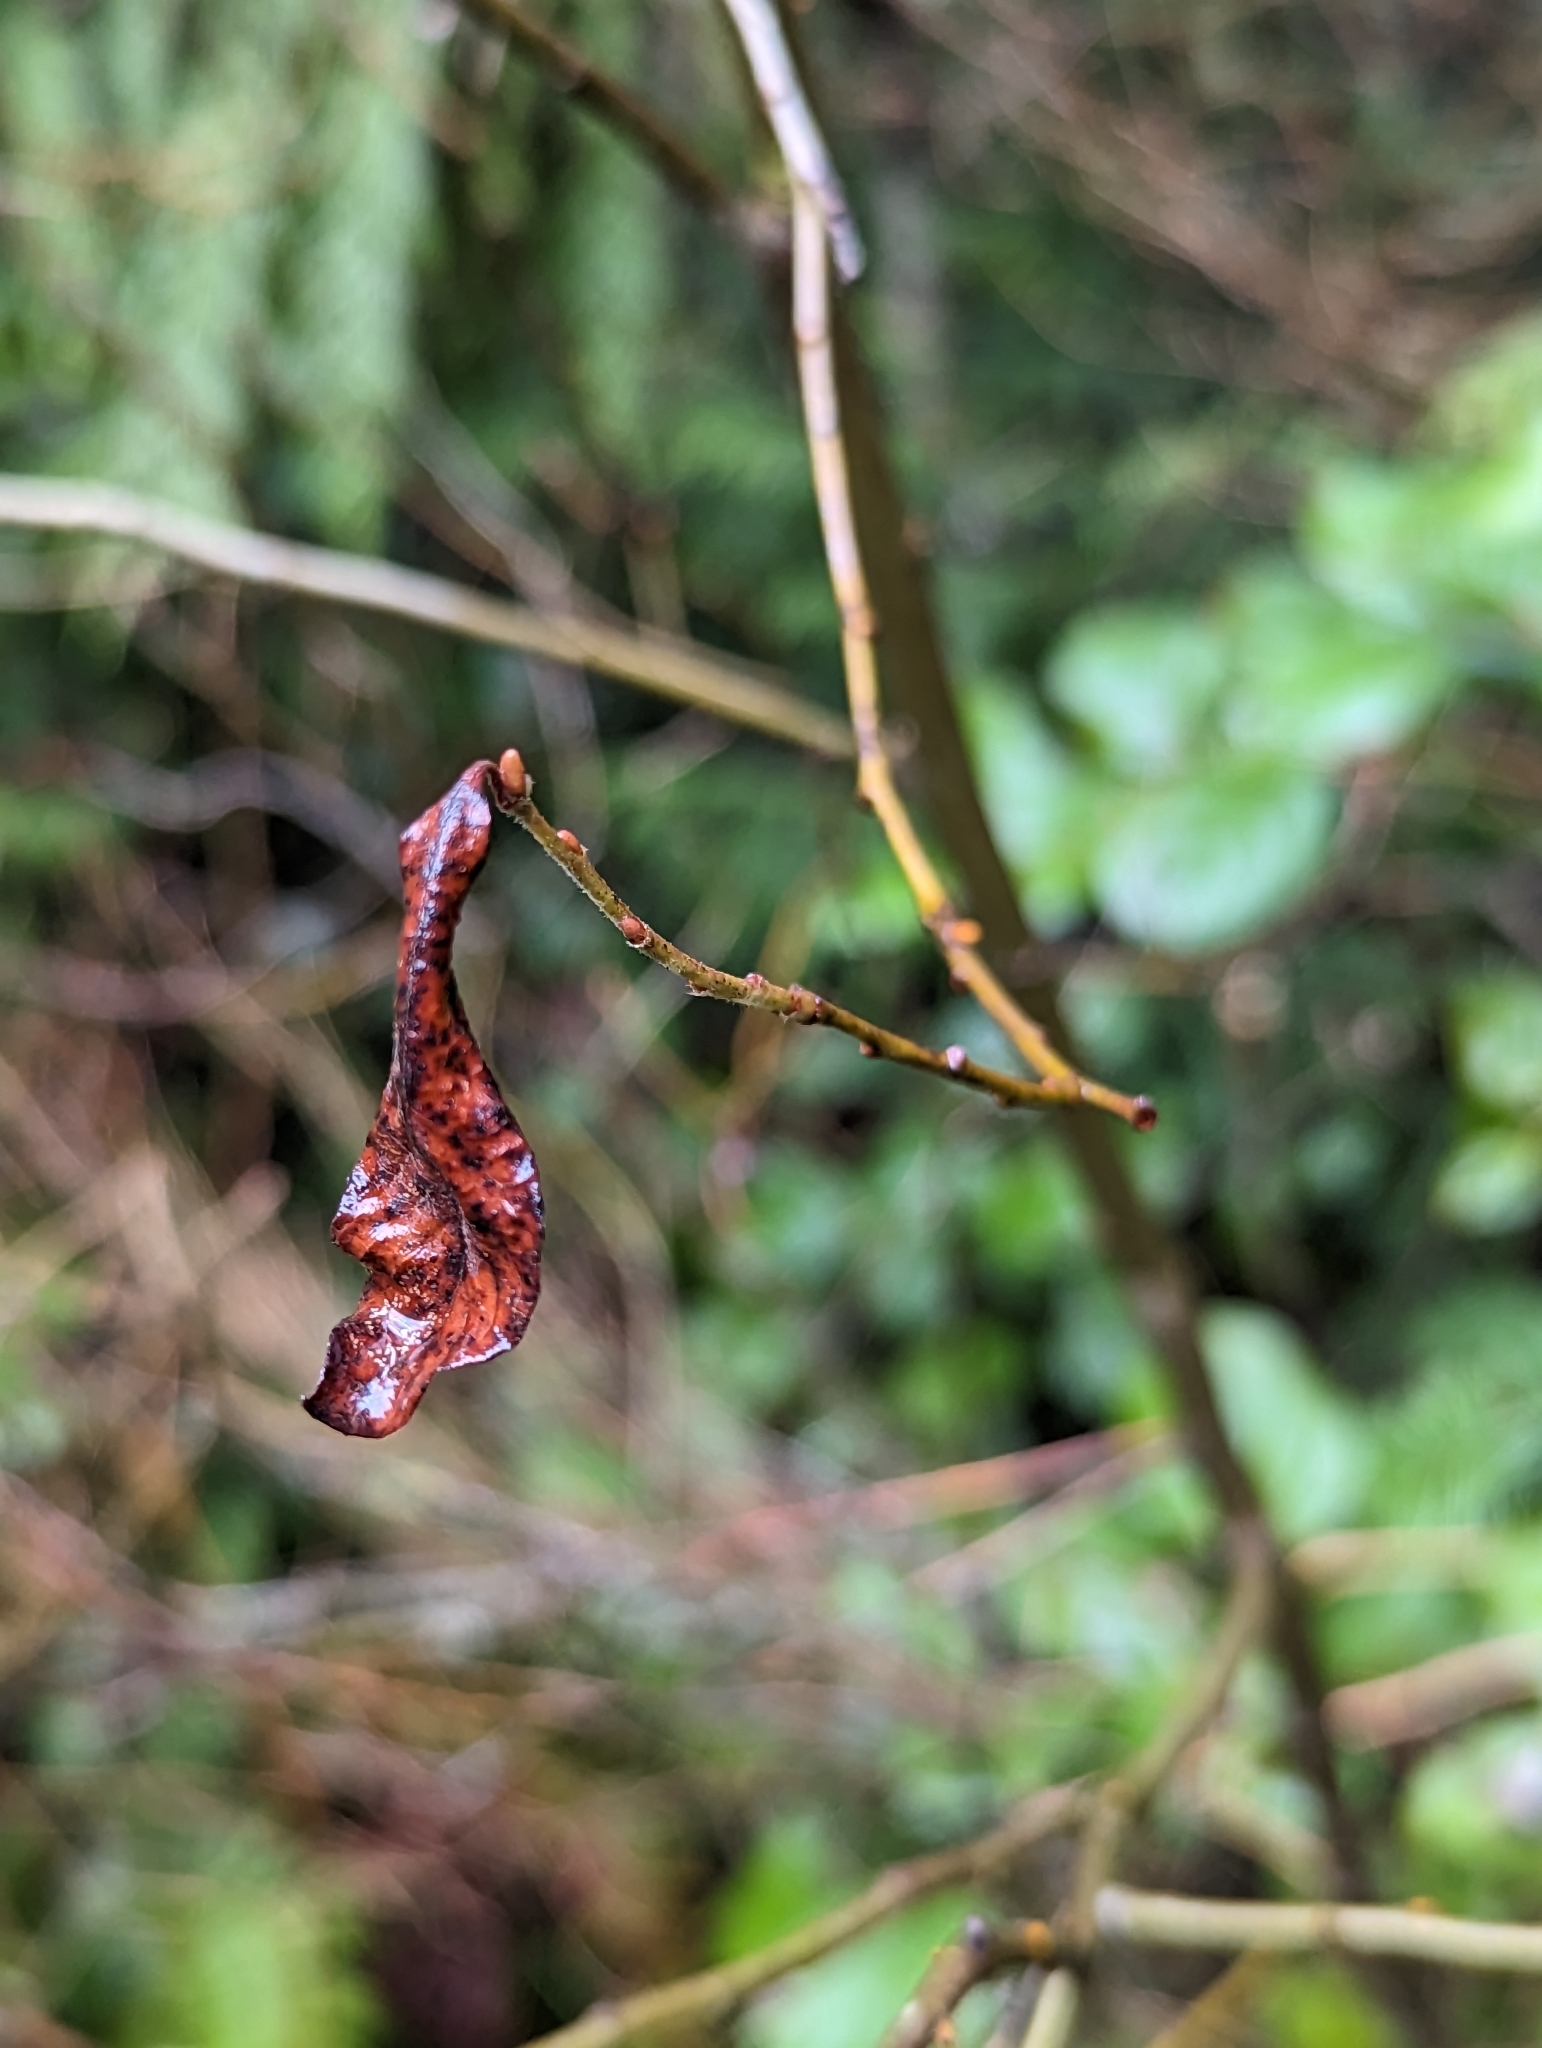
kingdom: Plantae
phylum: Tracheophyta
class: Magnoliopsida
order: Malpighiales
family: Salicaceae
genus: Salix
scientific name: Salix scouleriana
